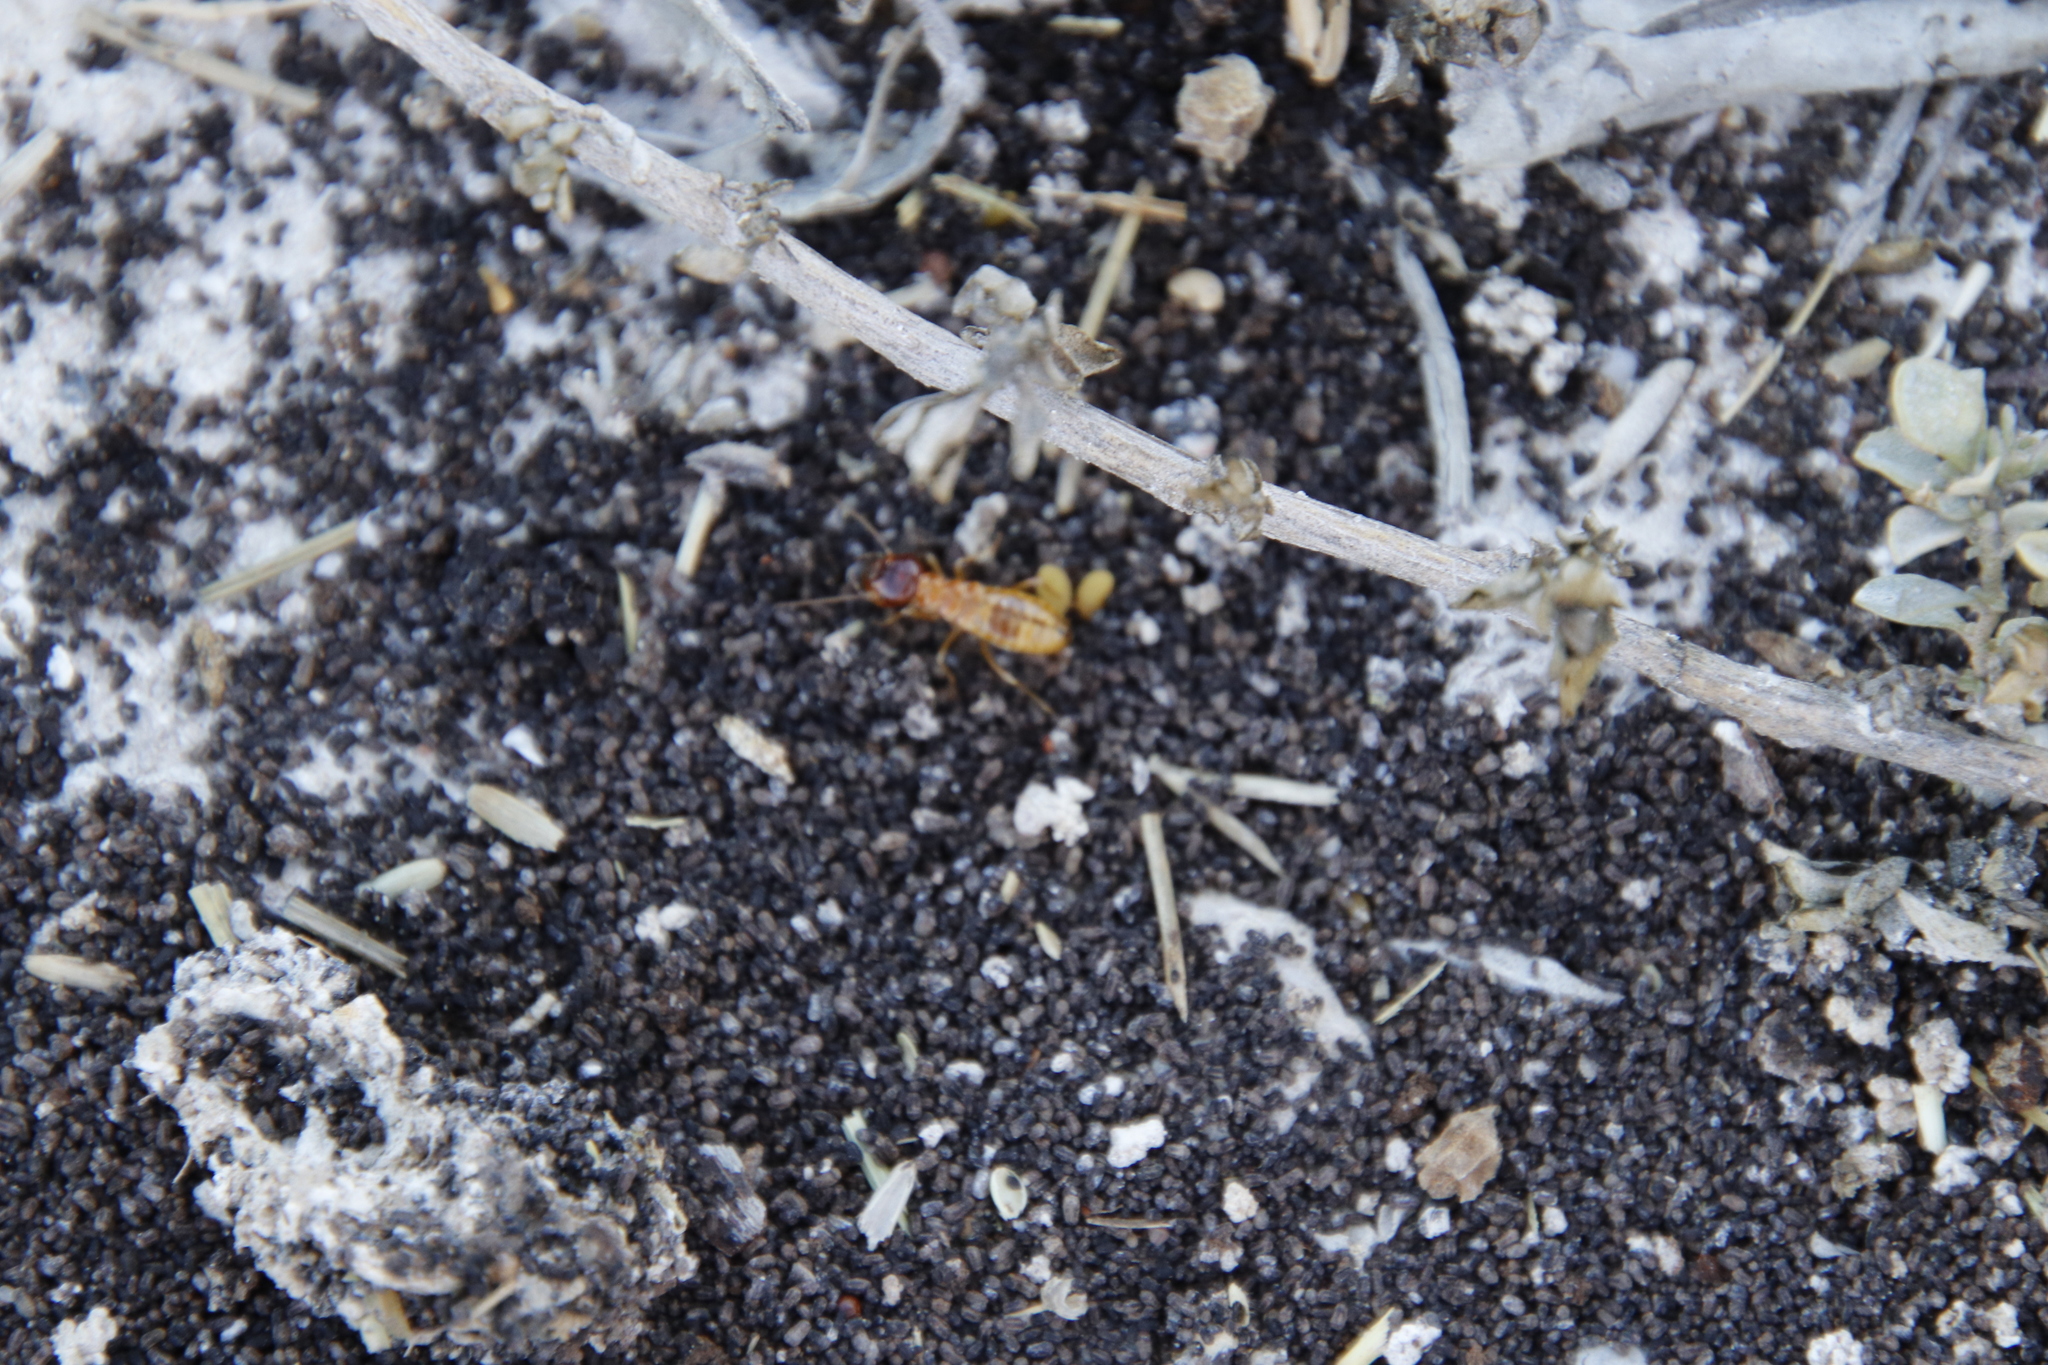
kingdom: Animalia
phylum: Arthropoda
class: Insecta
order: Blattodea
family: Hodotermitidae
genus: Microhodotermes
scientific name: Microhodotermes viator
